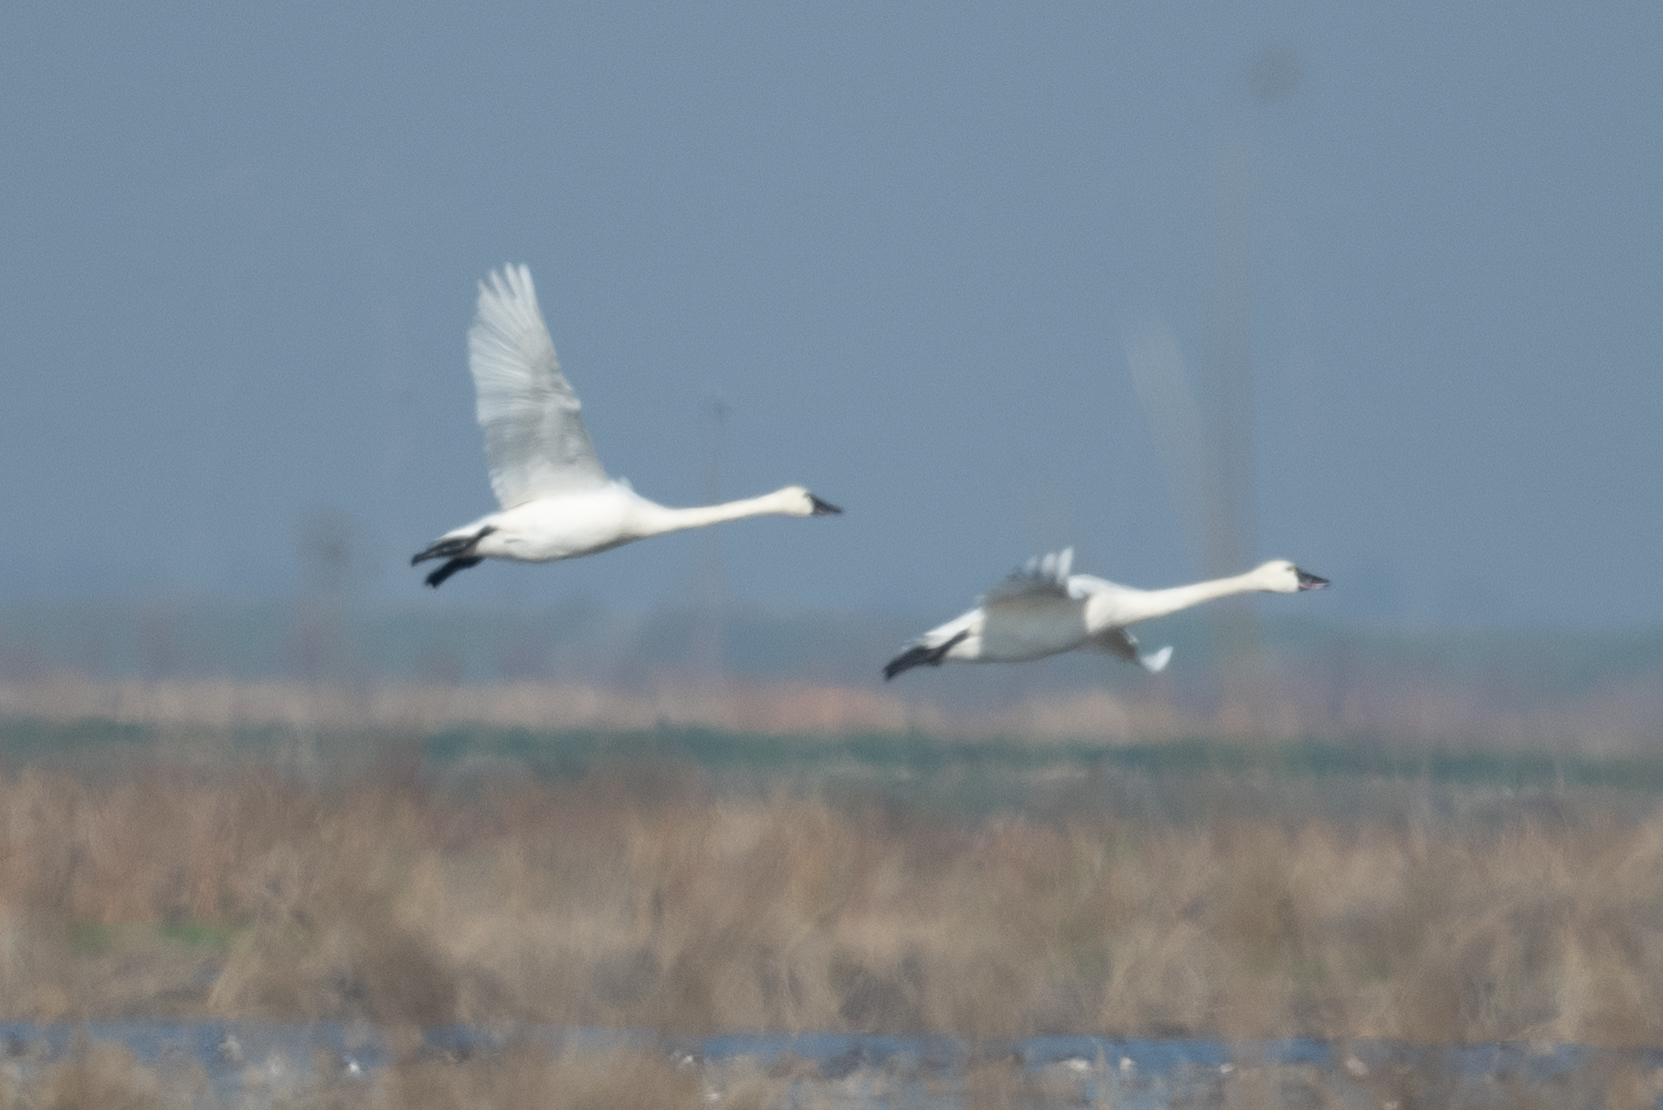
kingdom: Animalia
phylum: Chordata
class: Aves
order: Anseriformes
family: Anatidae
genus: Cygnus
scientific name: Cygnus columbianus
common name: Tundra swan
